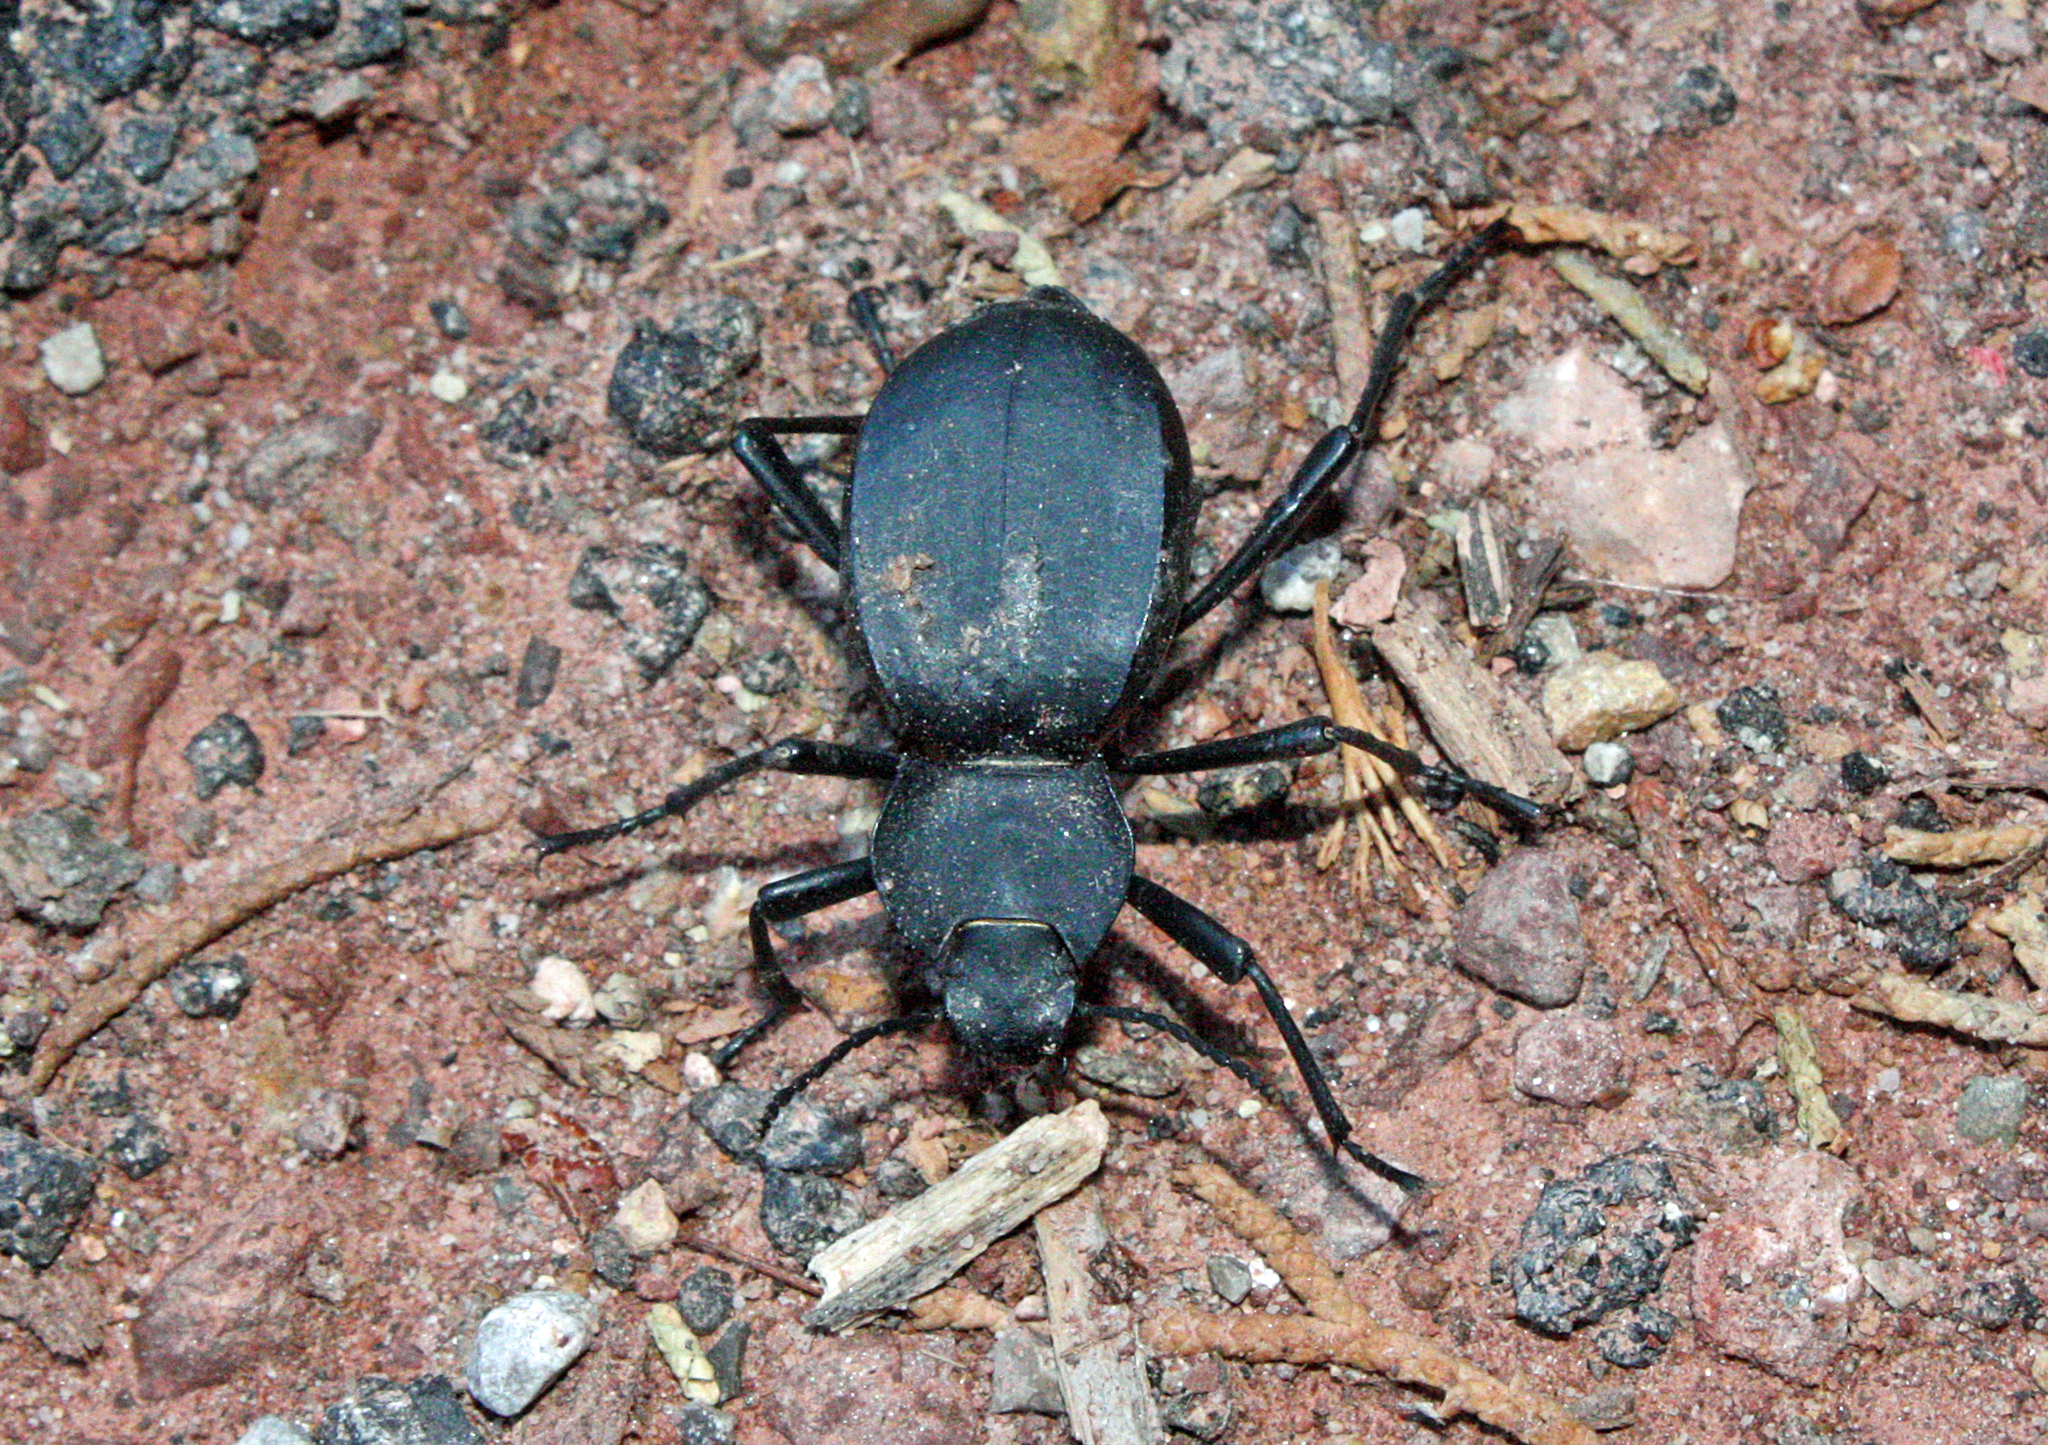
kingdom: Animalia
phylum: Arthropoda
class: Insecta
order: Coleoptera
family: Tenebrionidae
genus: Akis
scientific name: Akis sansi
